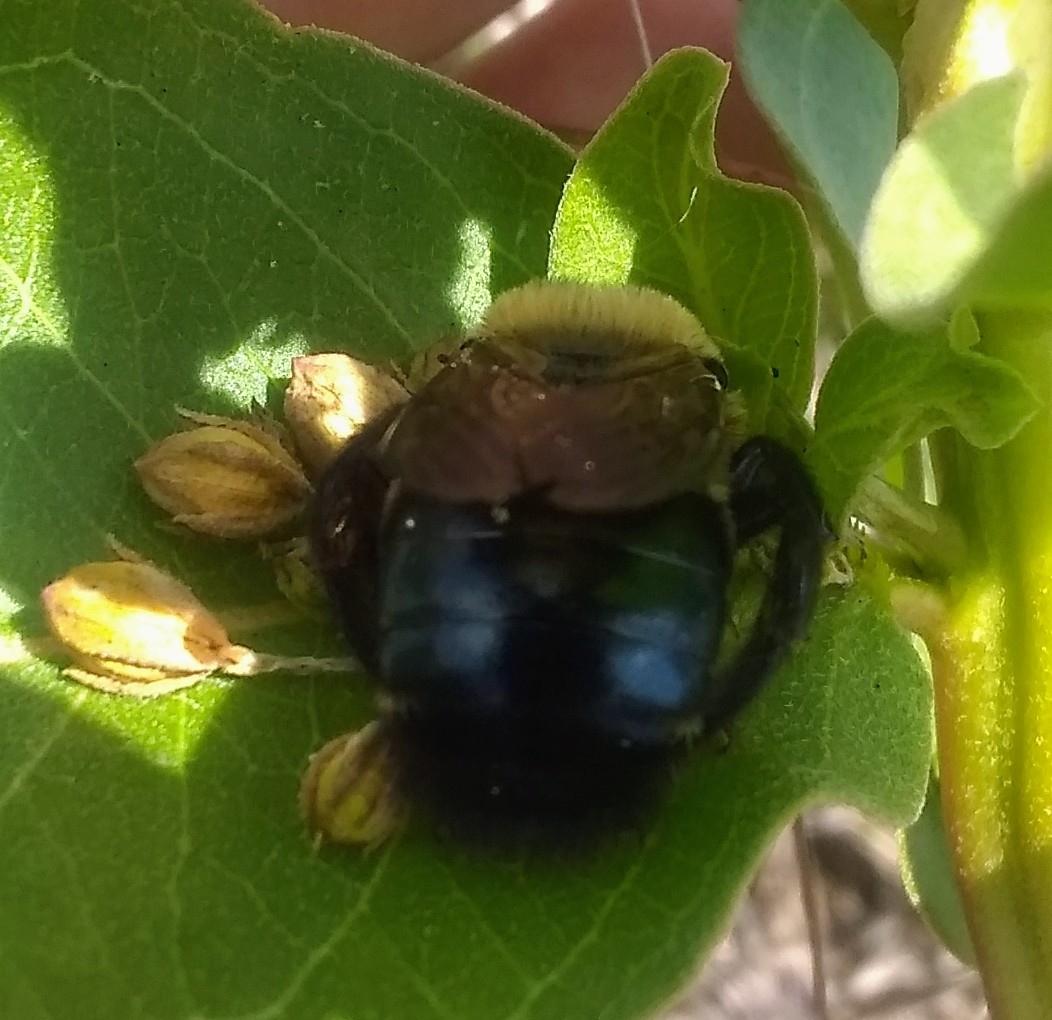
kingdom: Animalia
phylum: Arthropoda
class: Insecta
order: Hymenoptera
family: Apidae
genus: Xylocopa
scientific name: Xylocopa virginica
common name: Carpenter bee
